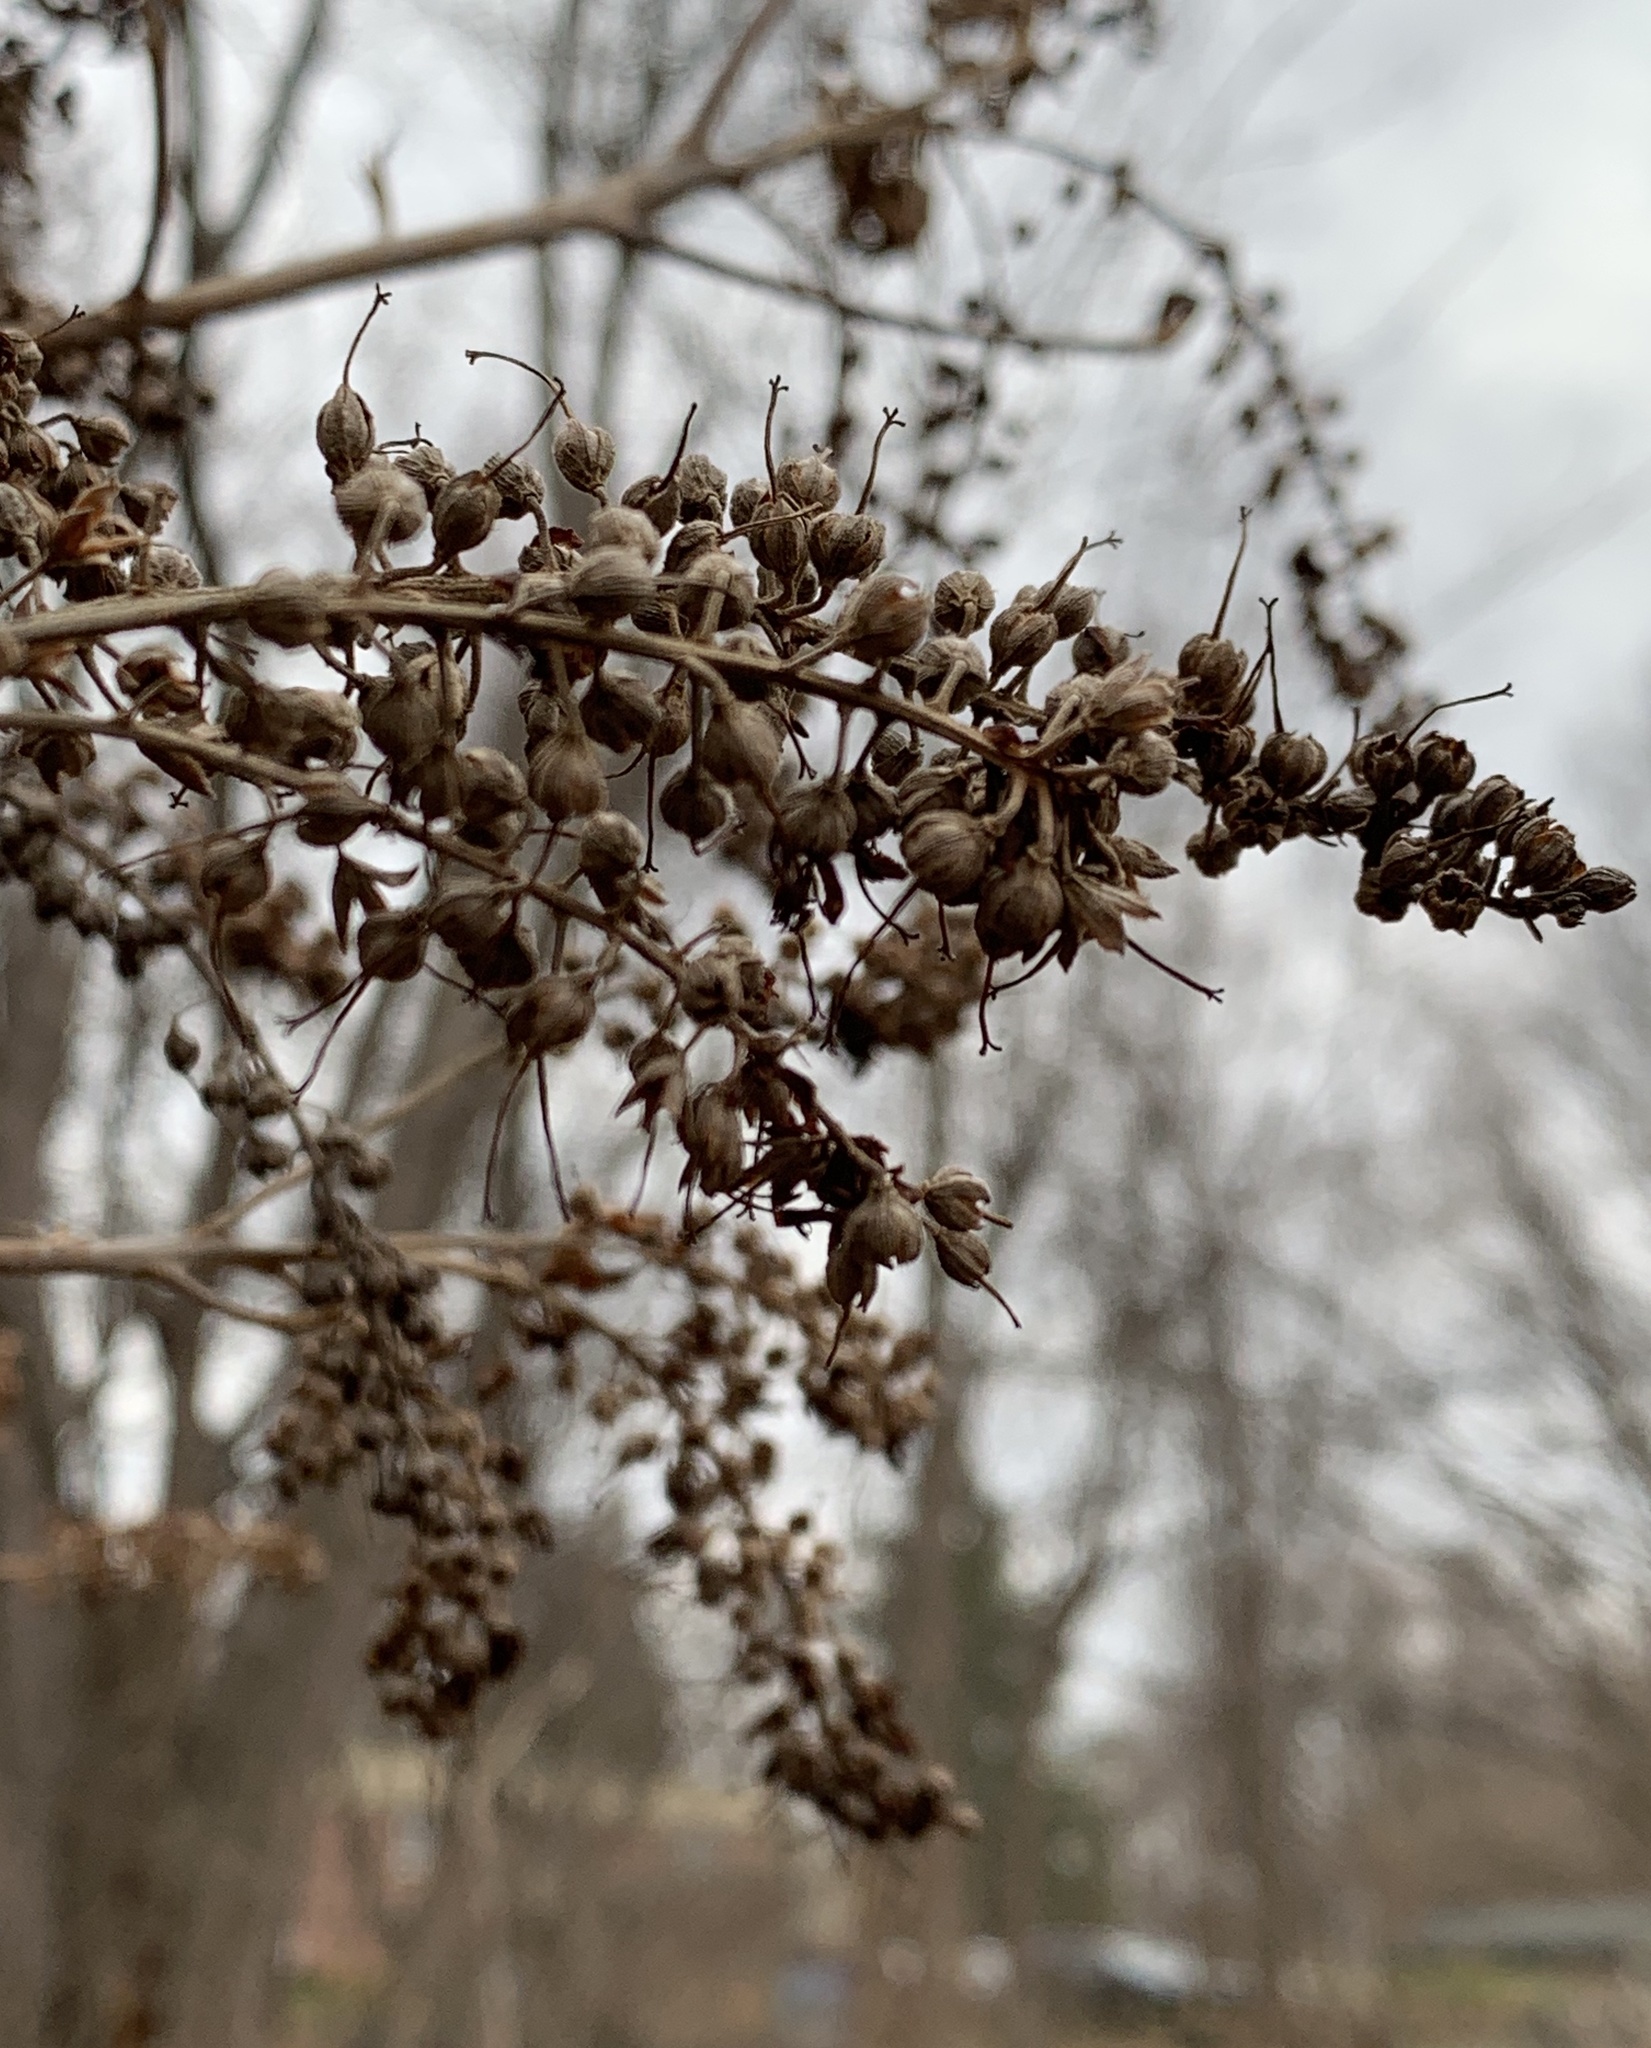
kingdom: Plantae
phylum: Tracheophyta
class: Magnoliopsida
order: Ericales
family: Clethraceae
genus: Clethra
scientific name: Clethra alnifolia
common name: Sweet pepperbush
